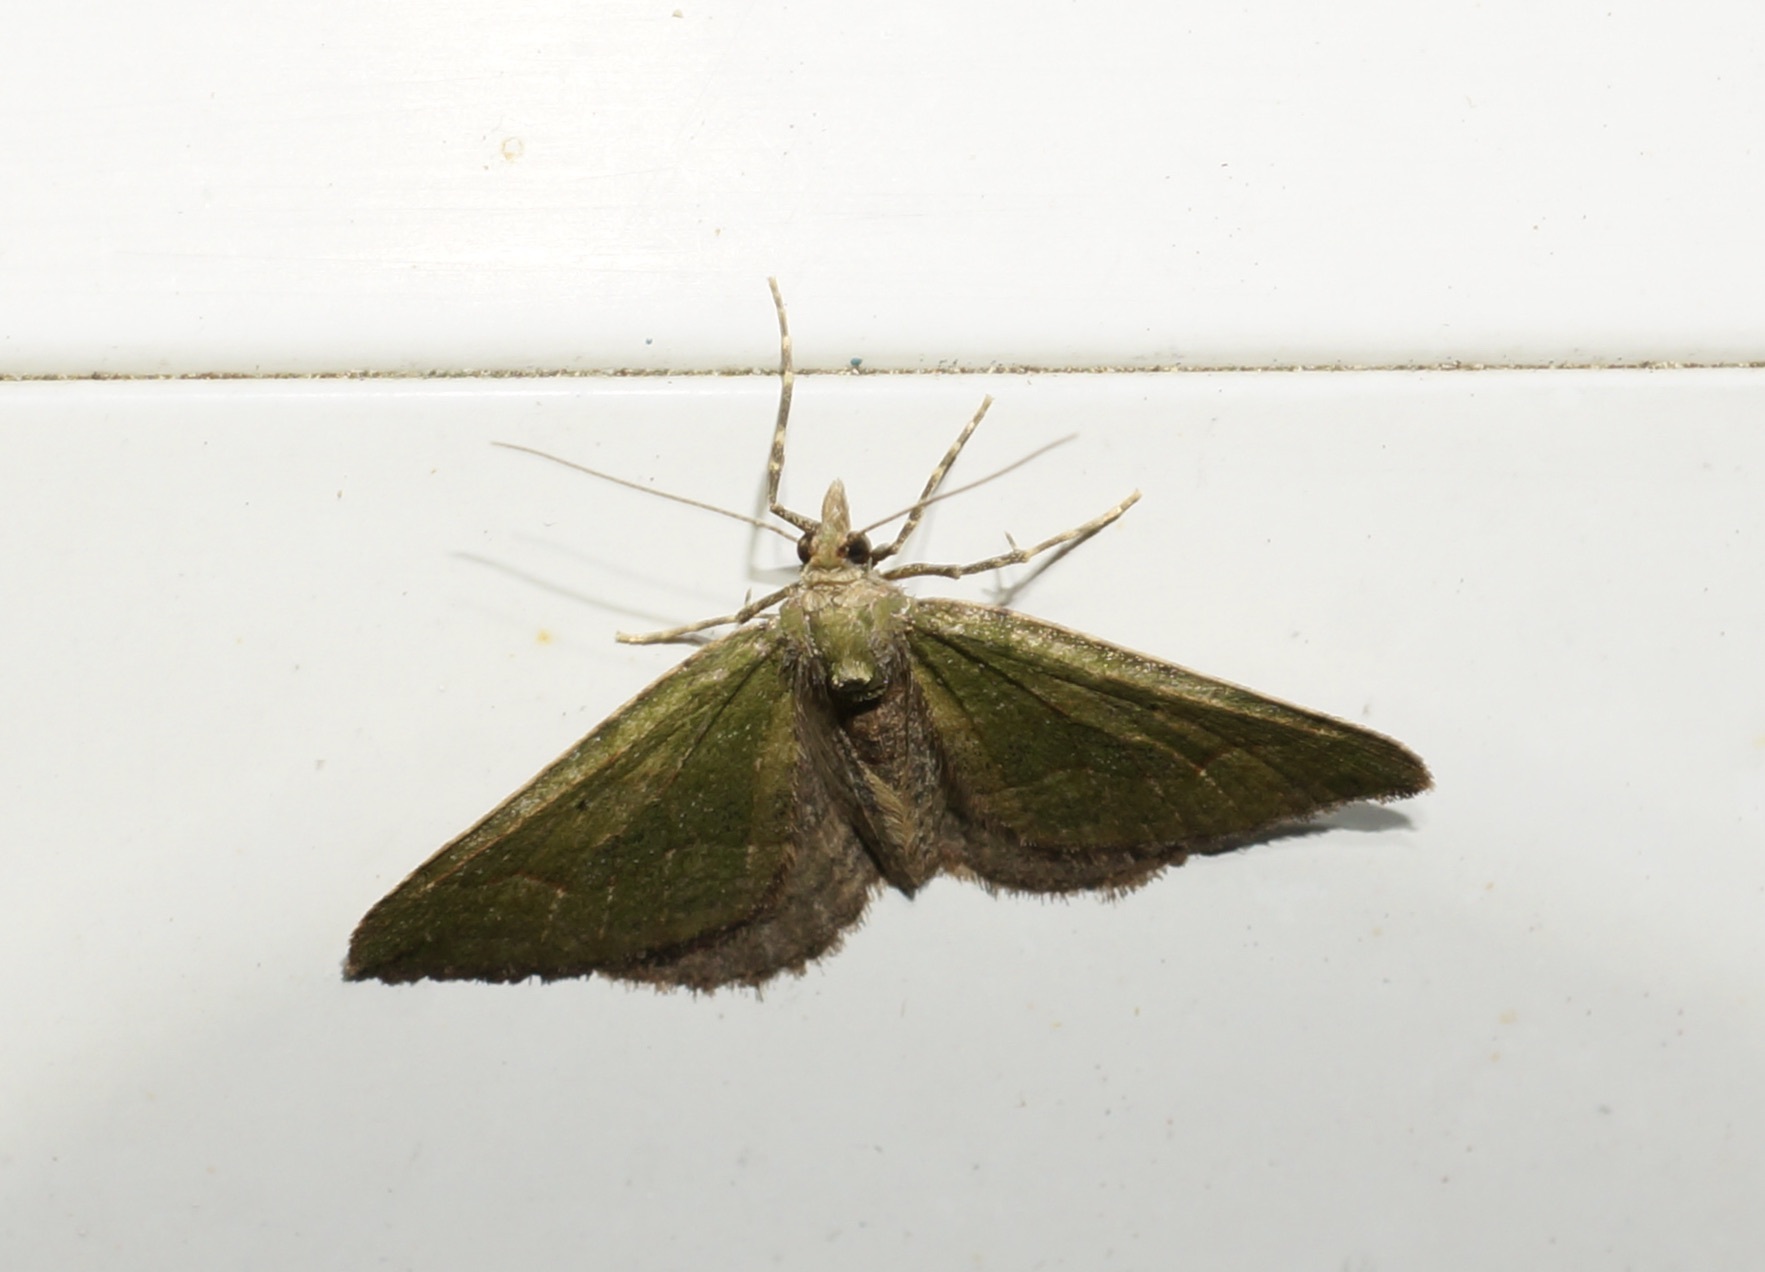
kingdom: Animalia
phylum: Arthropoda
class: Insecta
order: Lepidoptera
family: Geometridae
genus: Epyaxa
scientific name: Epyaxa rosearia
